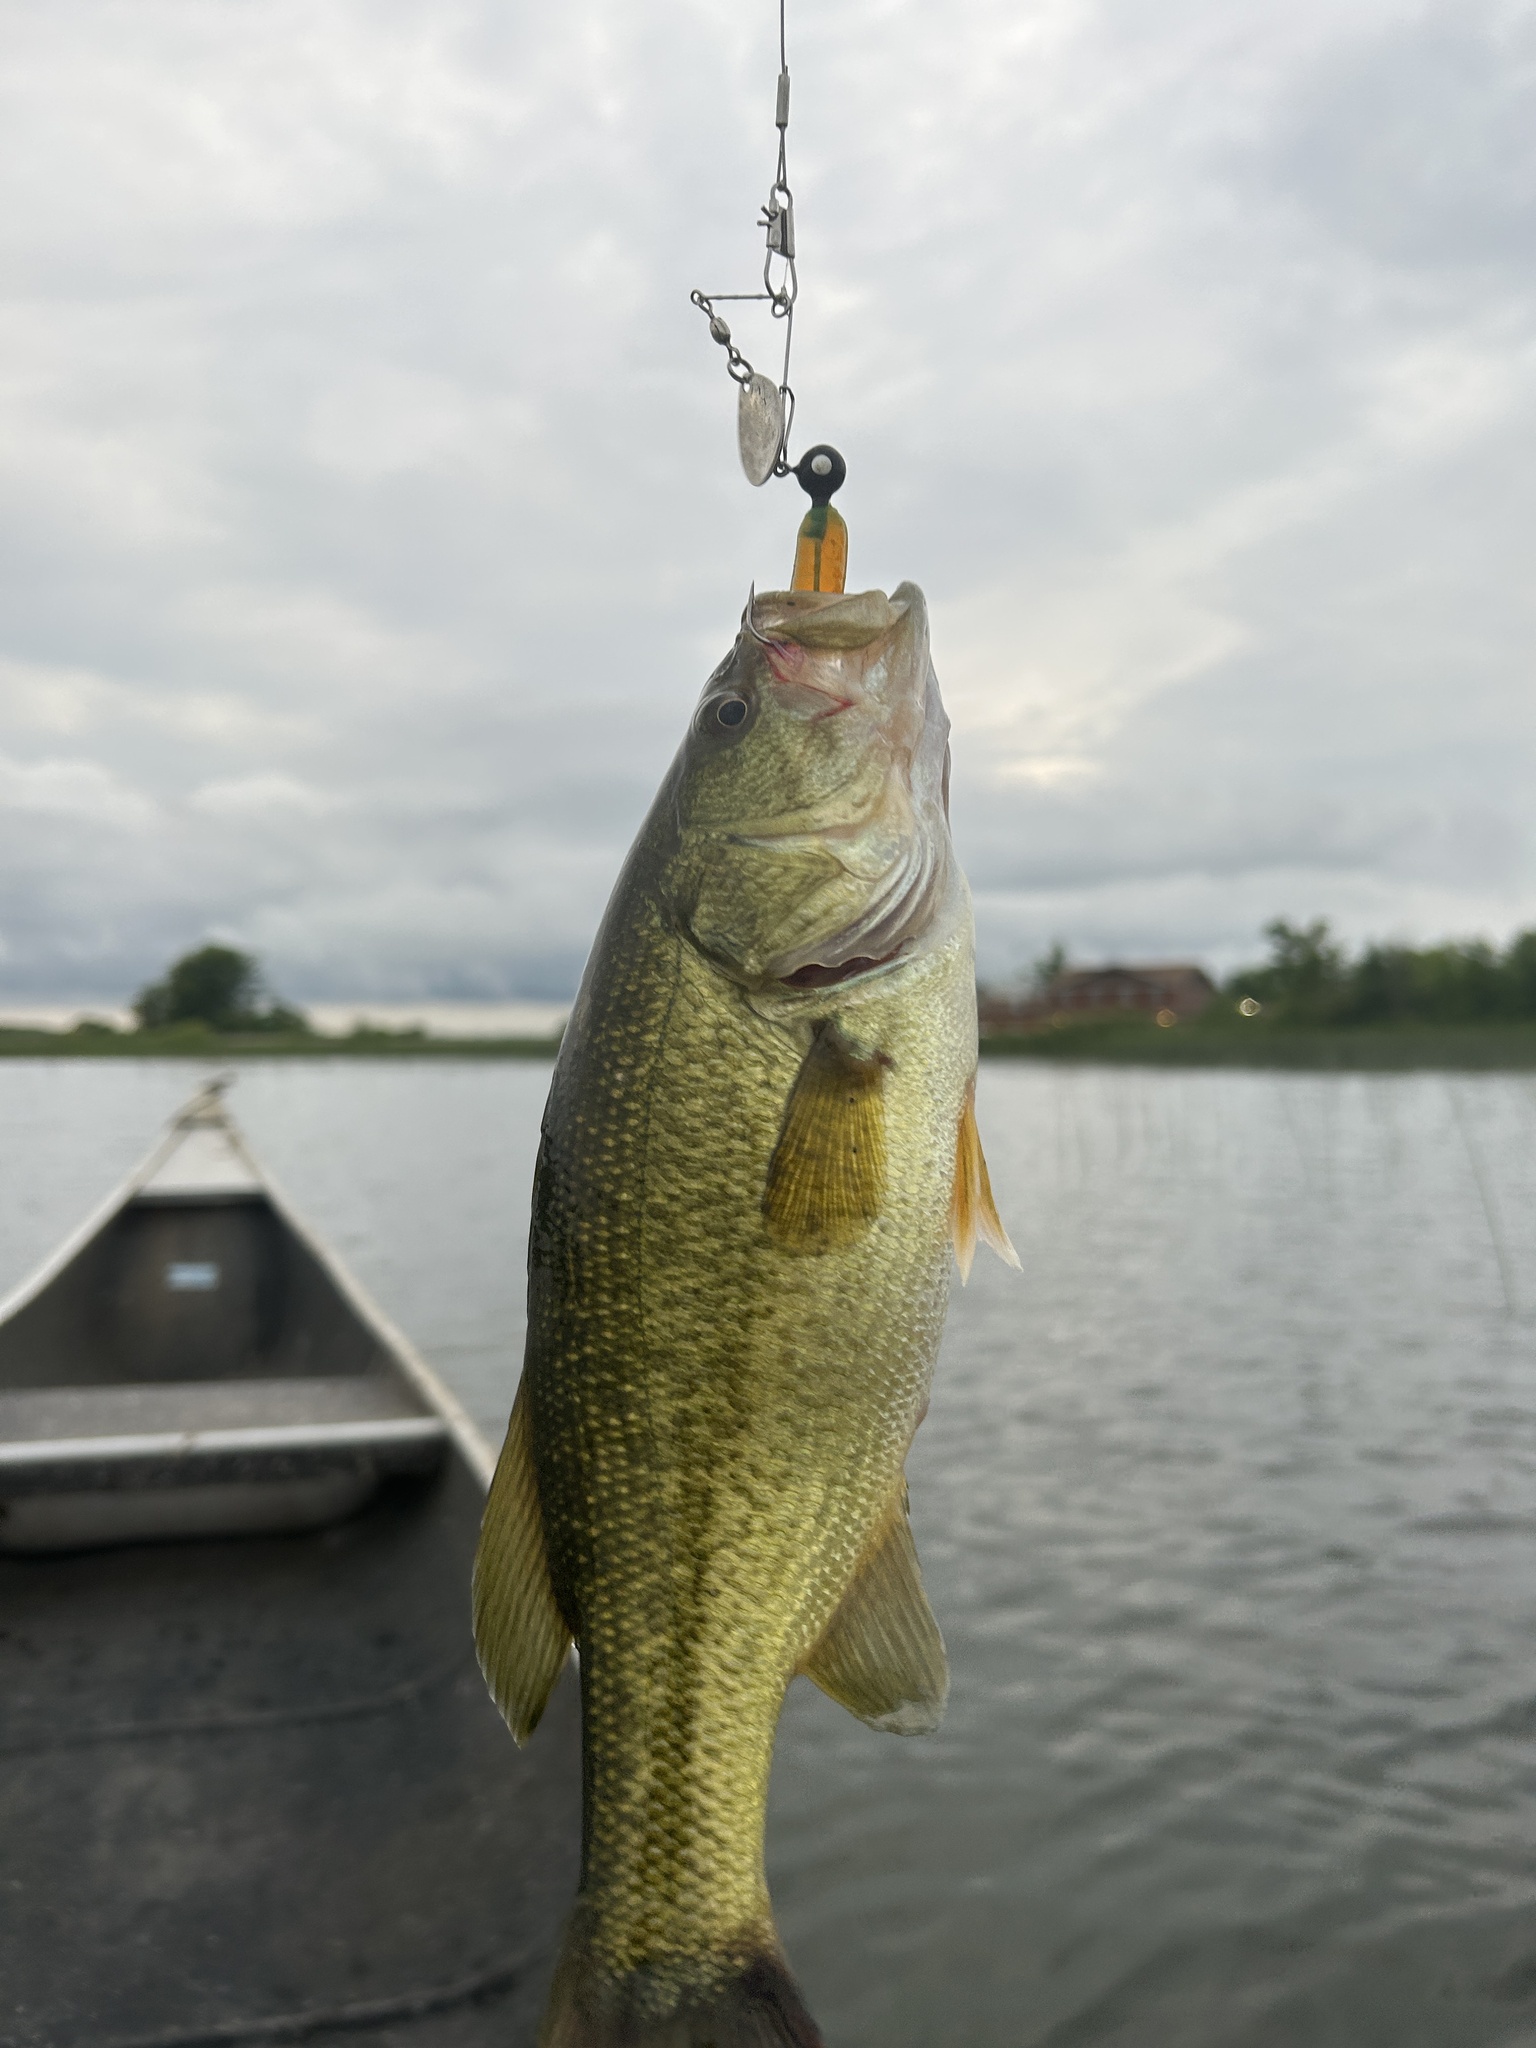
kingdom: Animalia
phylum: Chordata
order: Perciformes
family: Centrarchidae
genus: Micropterus
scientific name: Micropterus
